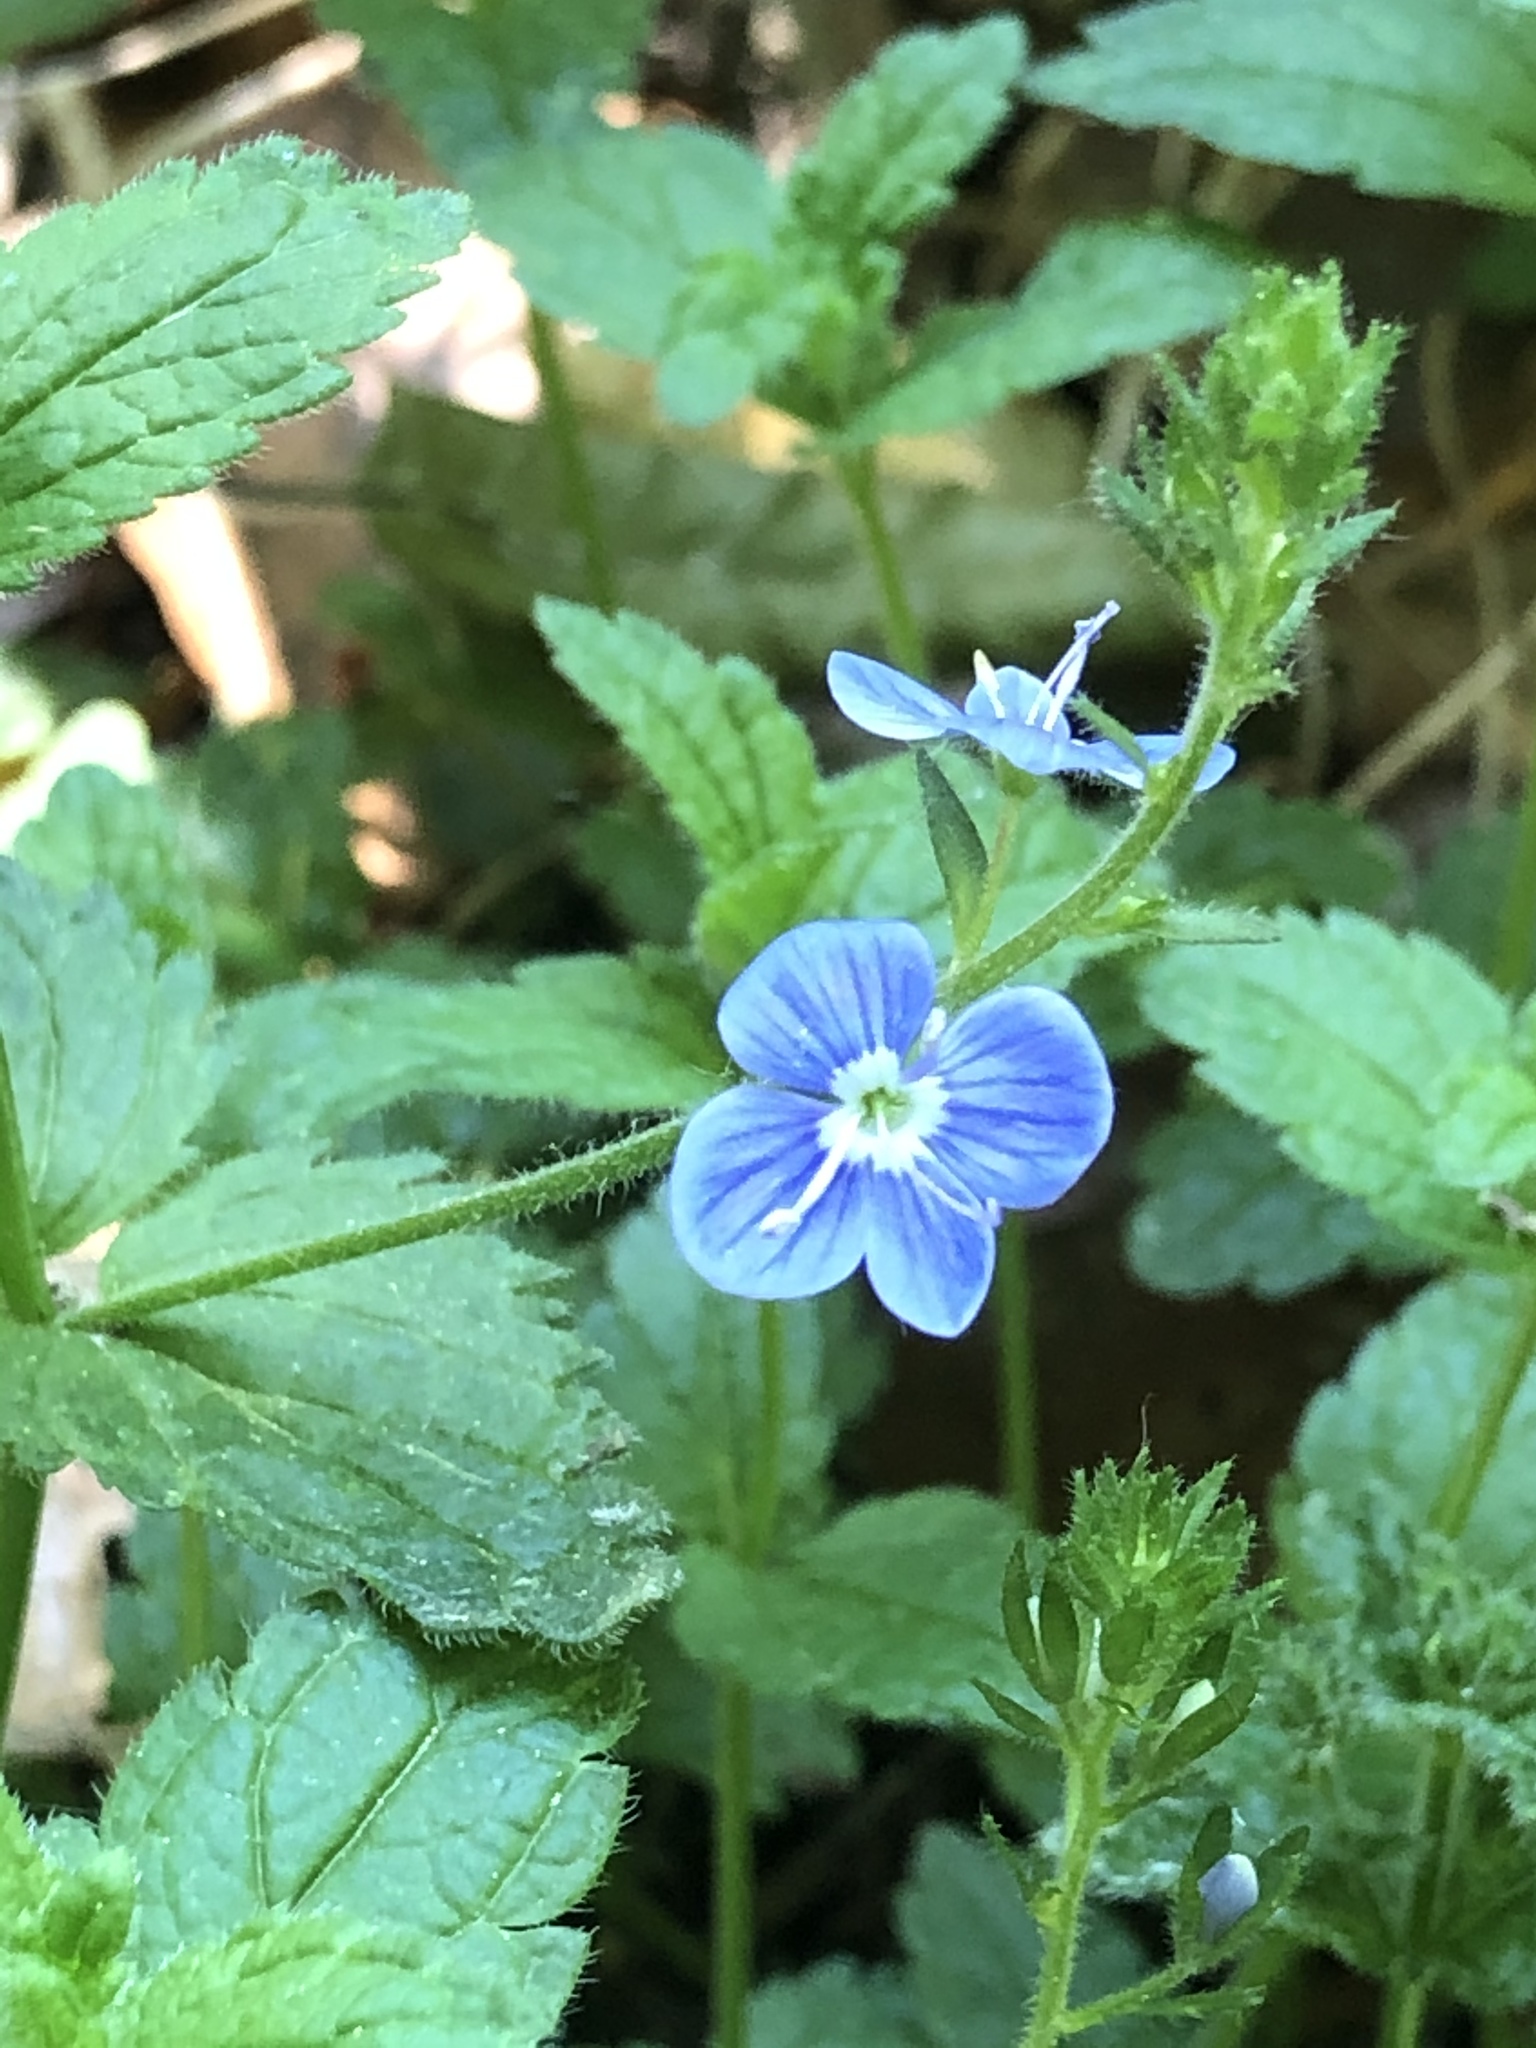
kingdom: Plantae
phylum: Tracheophyta
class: Magnoliopsida
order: Lamiales
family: Plantaginaceae
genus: Veronica
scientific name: Veronica chamaedrys
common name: Germander speedwell
